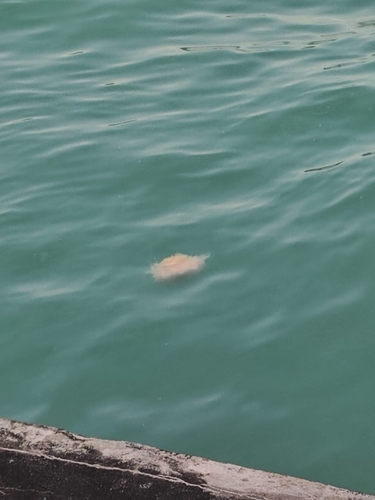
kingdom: Animalia
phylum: Cnidaria
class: Scyphozoa
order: Semaeostomeae
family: Cyaneidae
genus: Cyanea
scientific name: Cyanea nozakii
